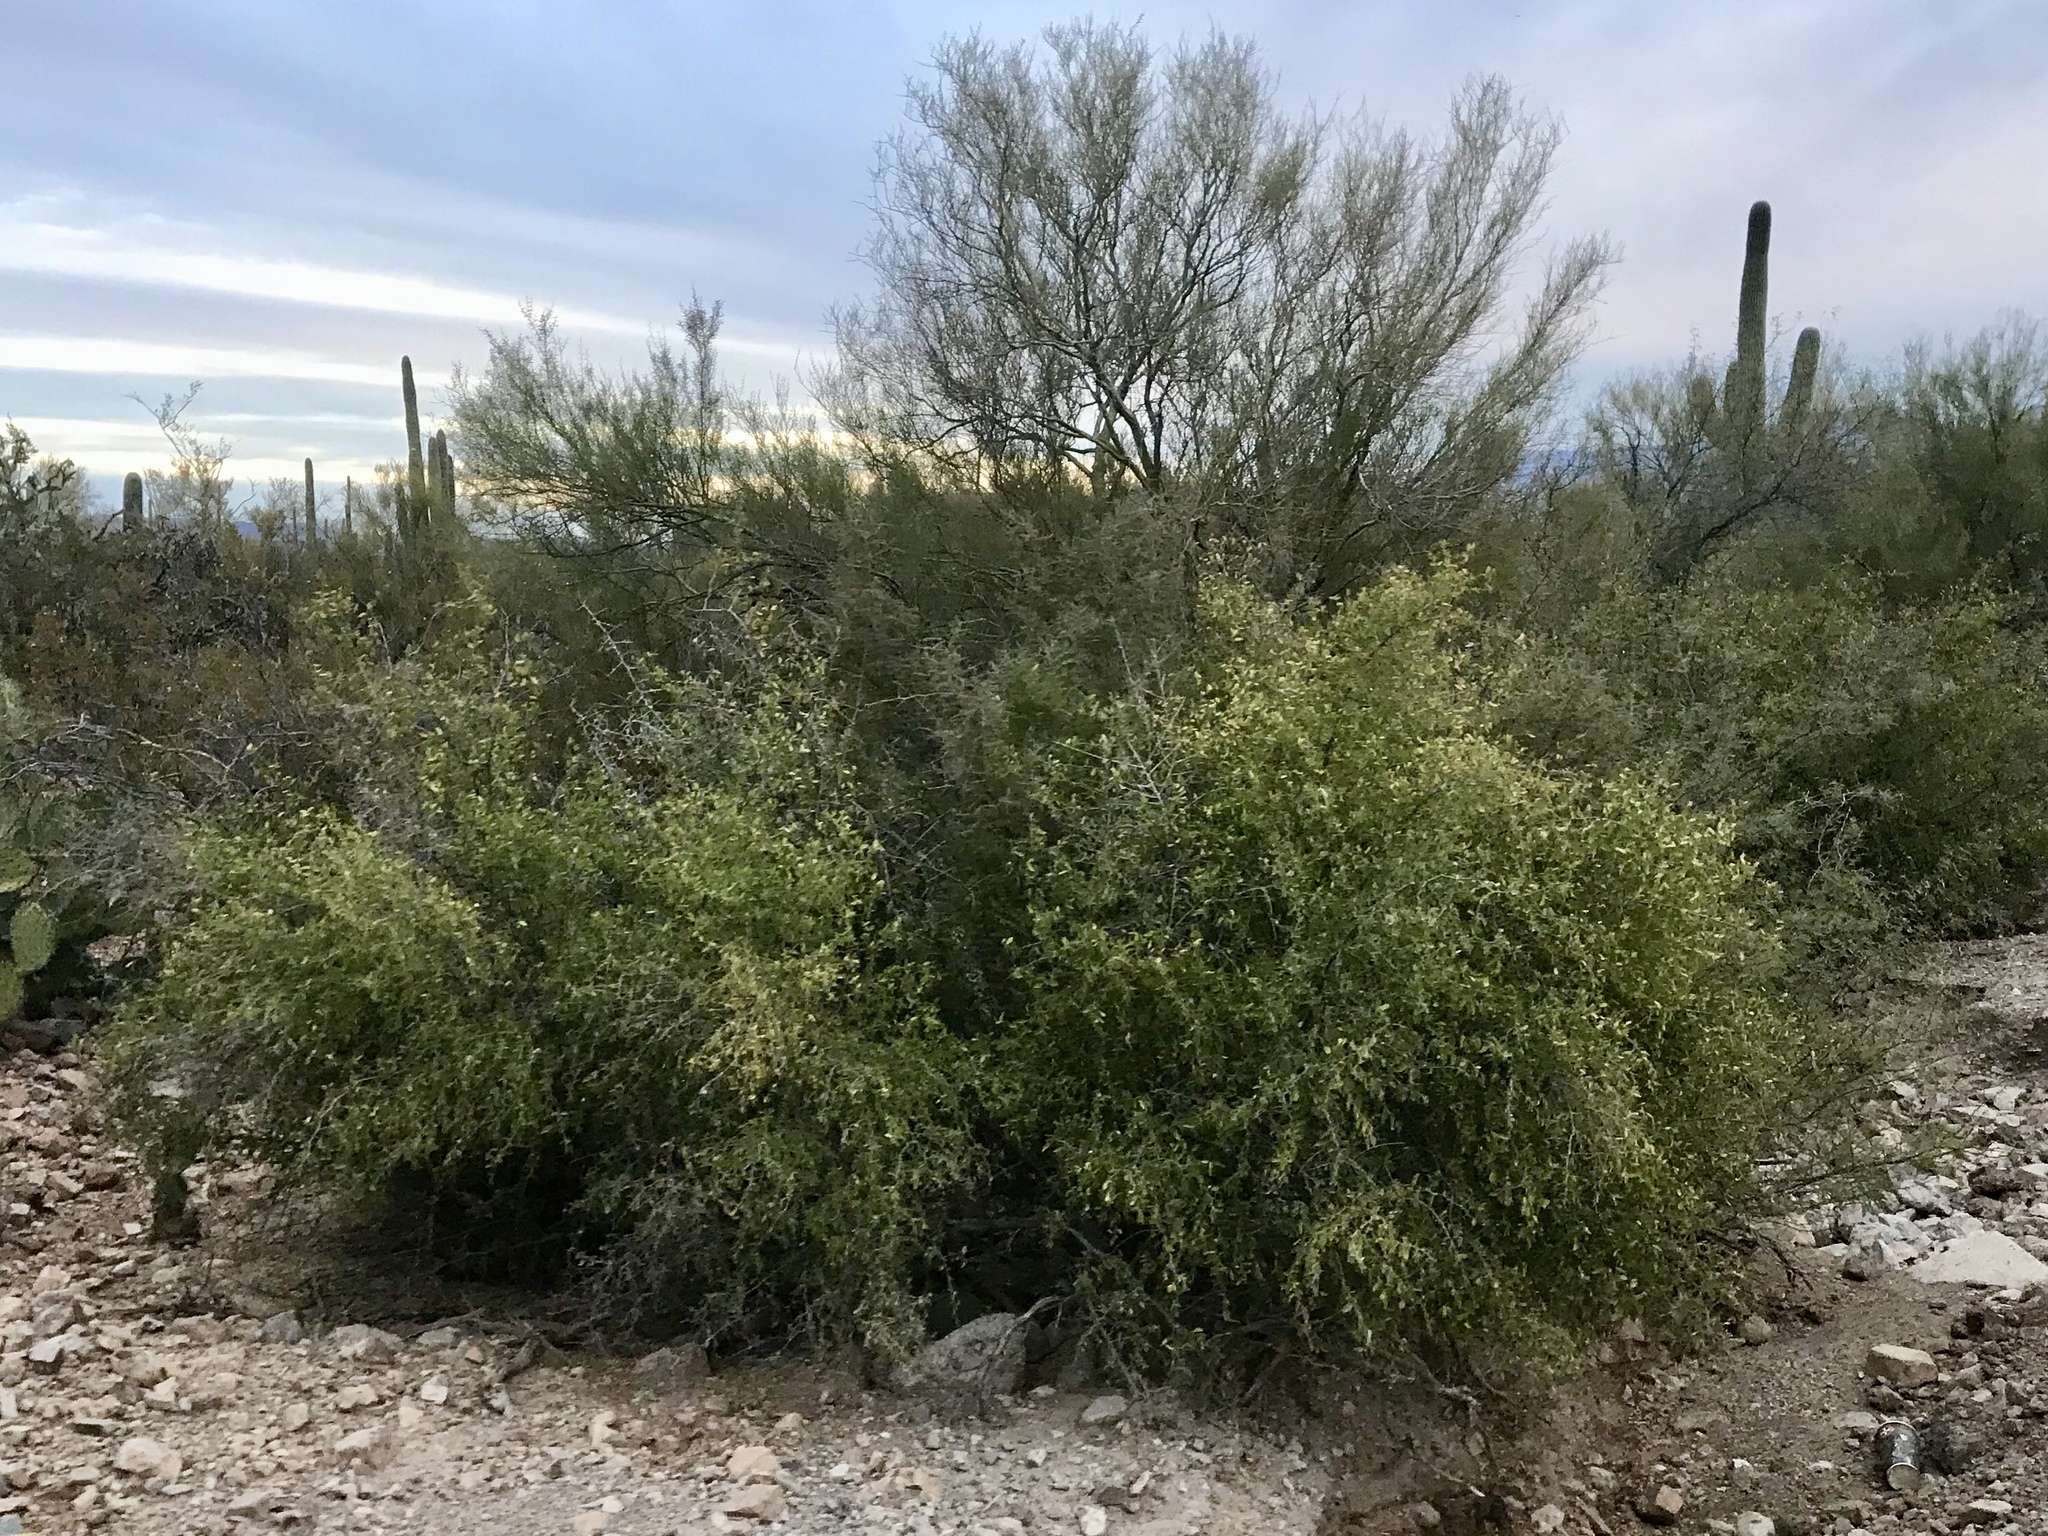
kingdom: Plantae
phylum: Tracheophyta
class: Magnoliopsida
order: Rosales
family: Cannabaceae
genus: Celtis
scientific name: Celtis pallida
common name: Desert hackberry
